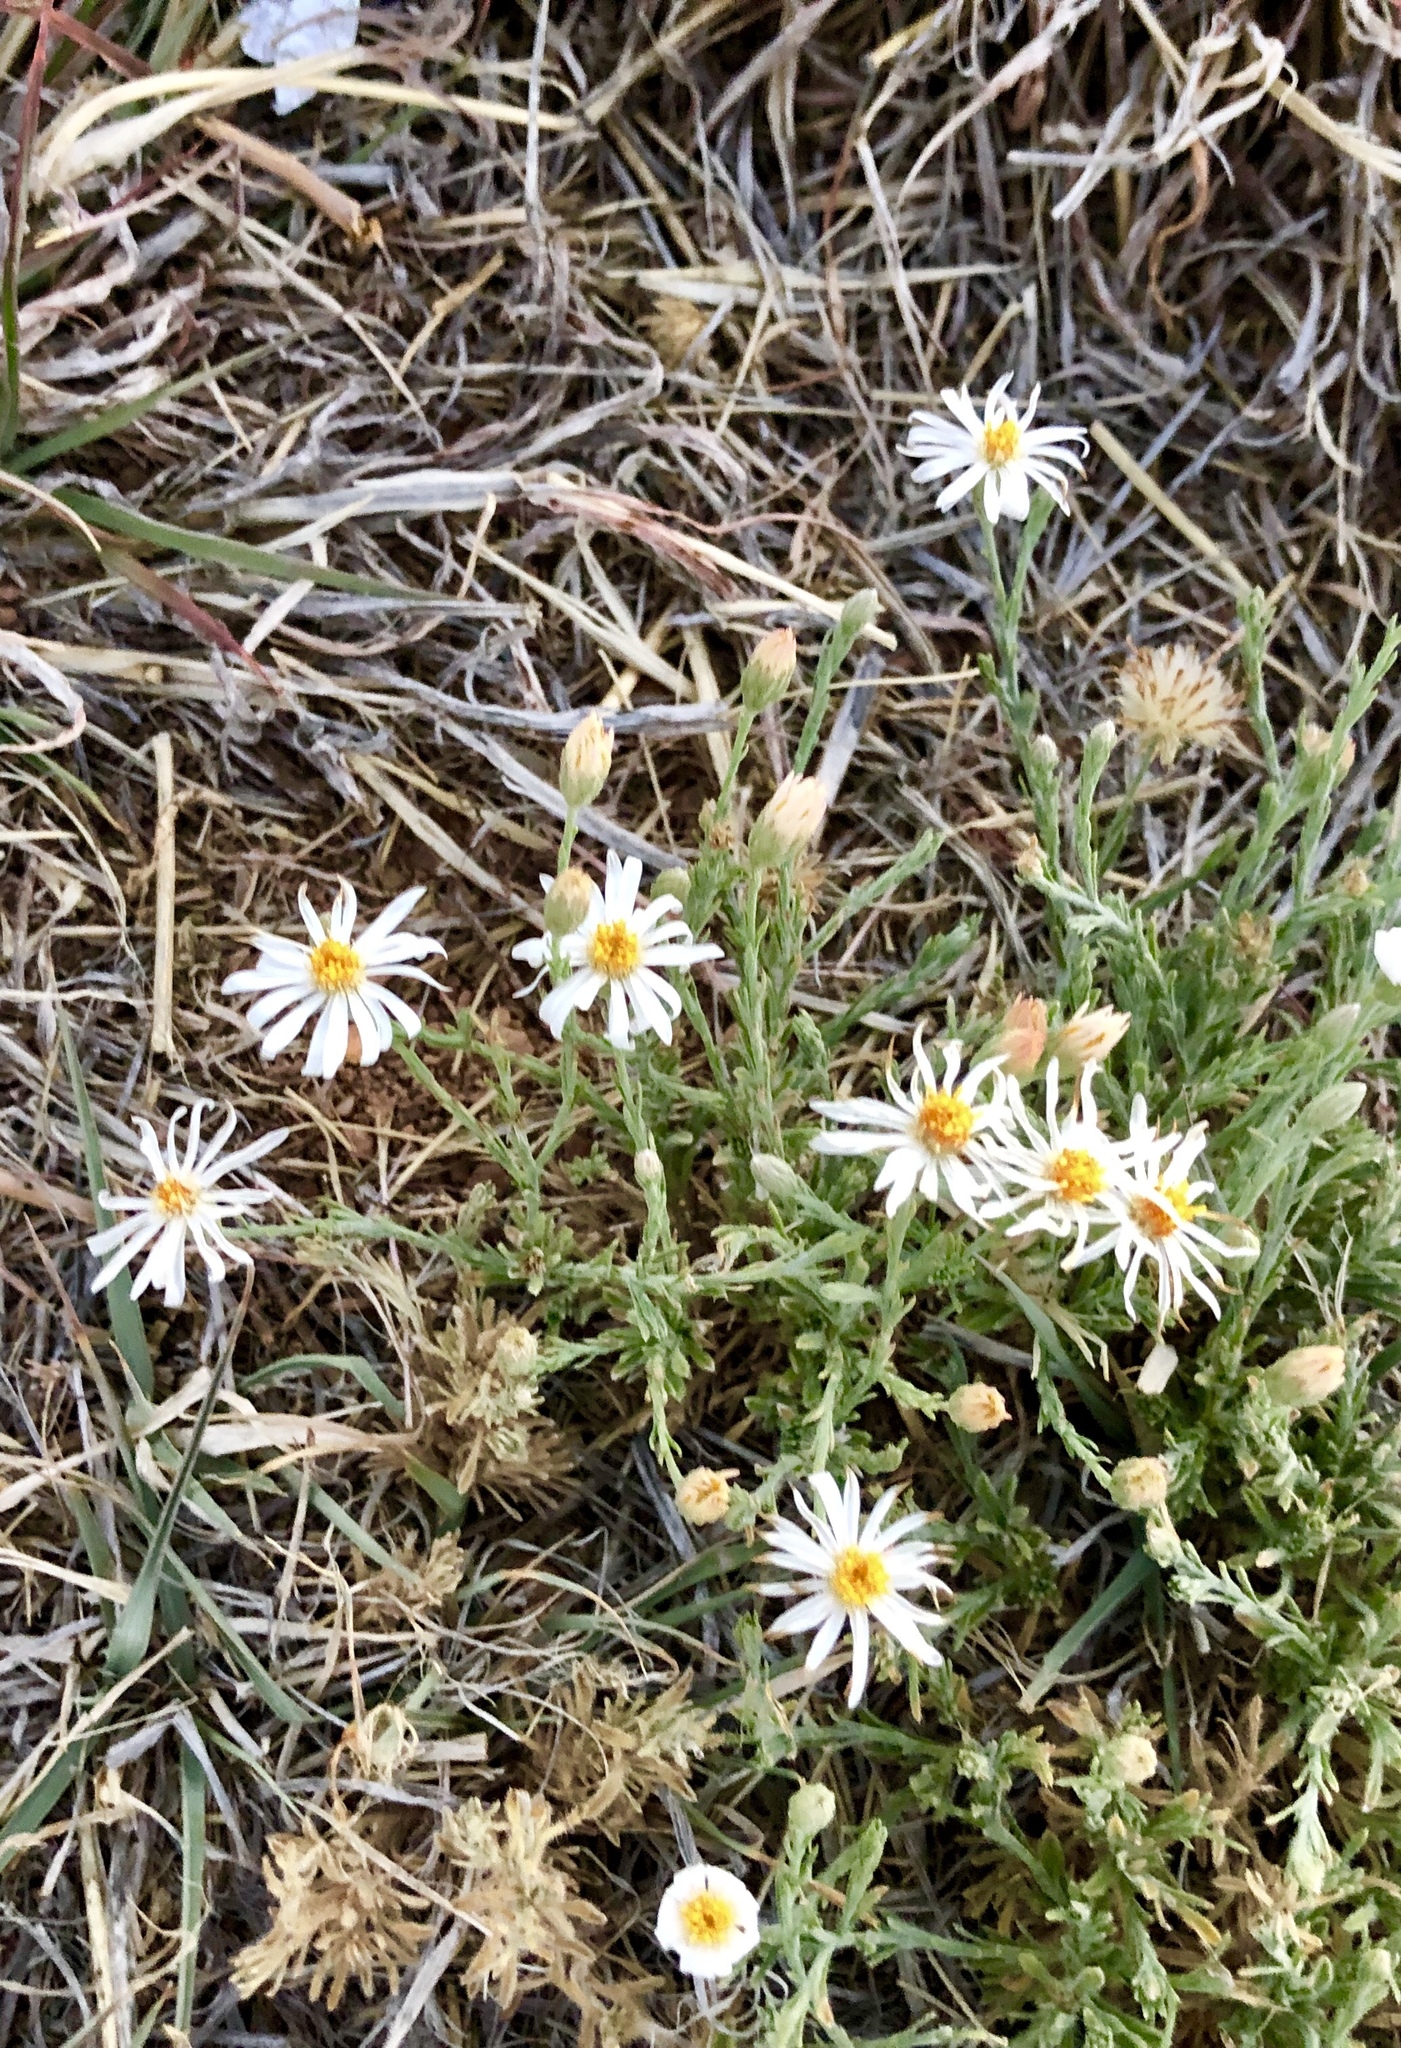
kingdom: Plantae
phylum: Tracheophyta
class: Magnoliopsida
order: Asterales
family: Asteraceae
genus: Chaetopappa
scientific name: Chaetopappa ericoides
